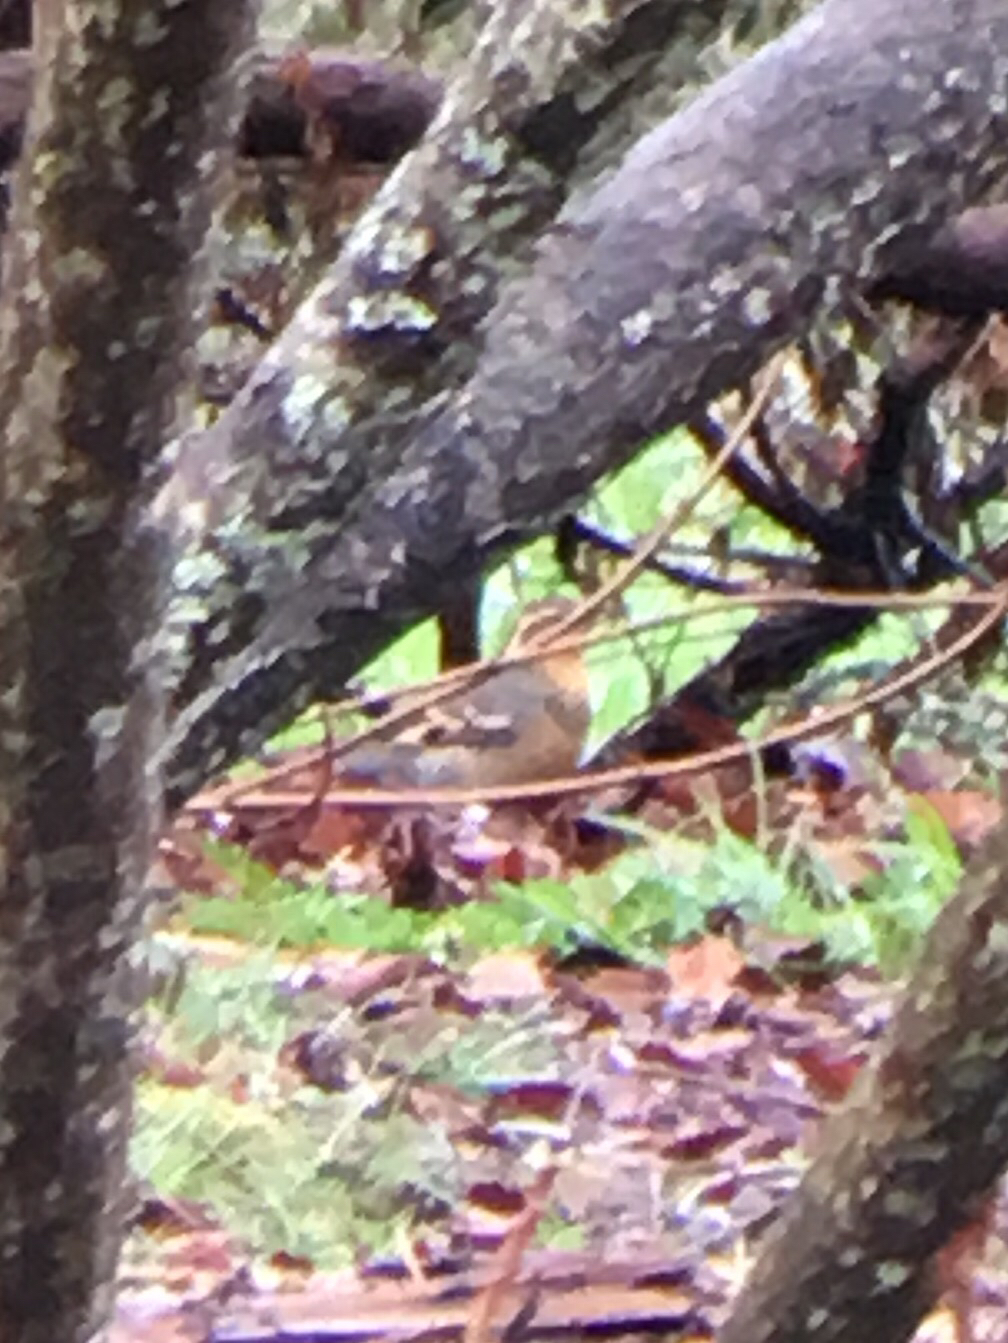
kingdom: Animalia
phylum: Chordata
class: Aves
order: Passeriformes
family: Turdidae
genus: Ixoreus
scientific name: Ixoreus naevius
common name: Varied thrush
